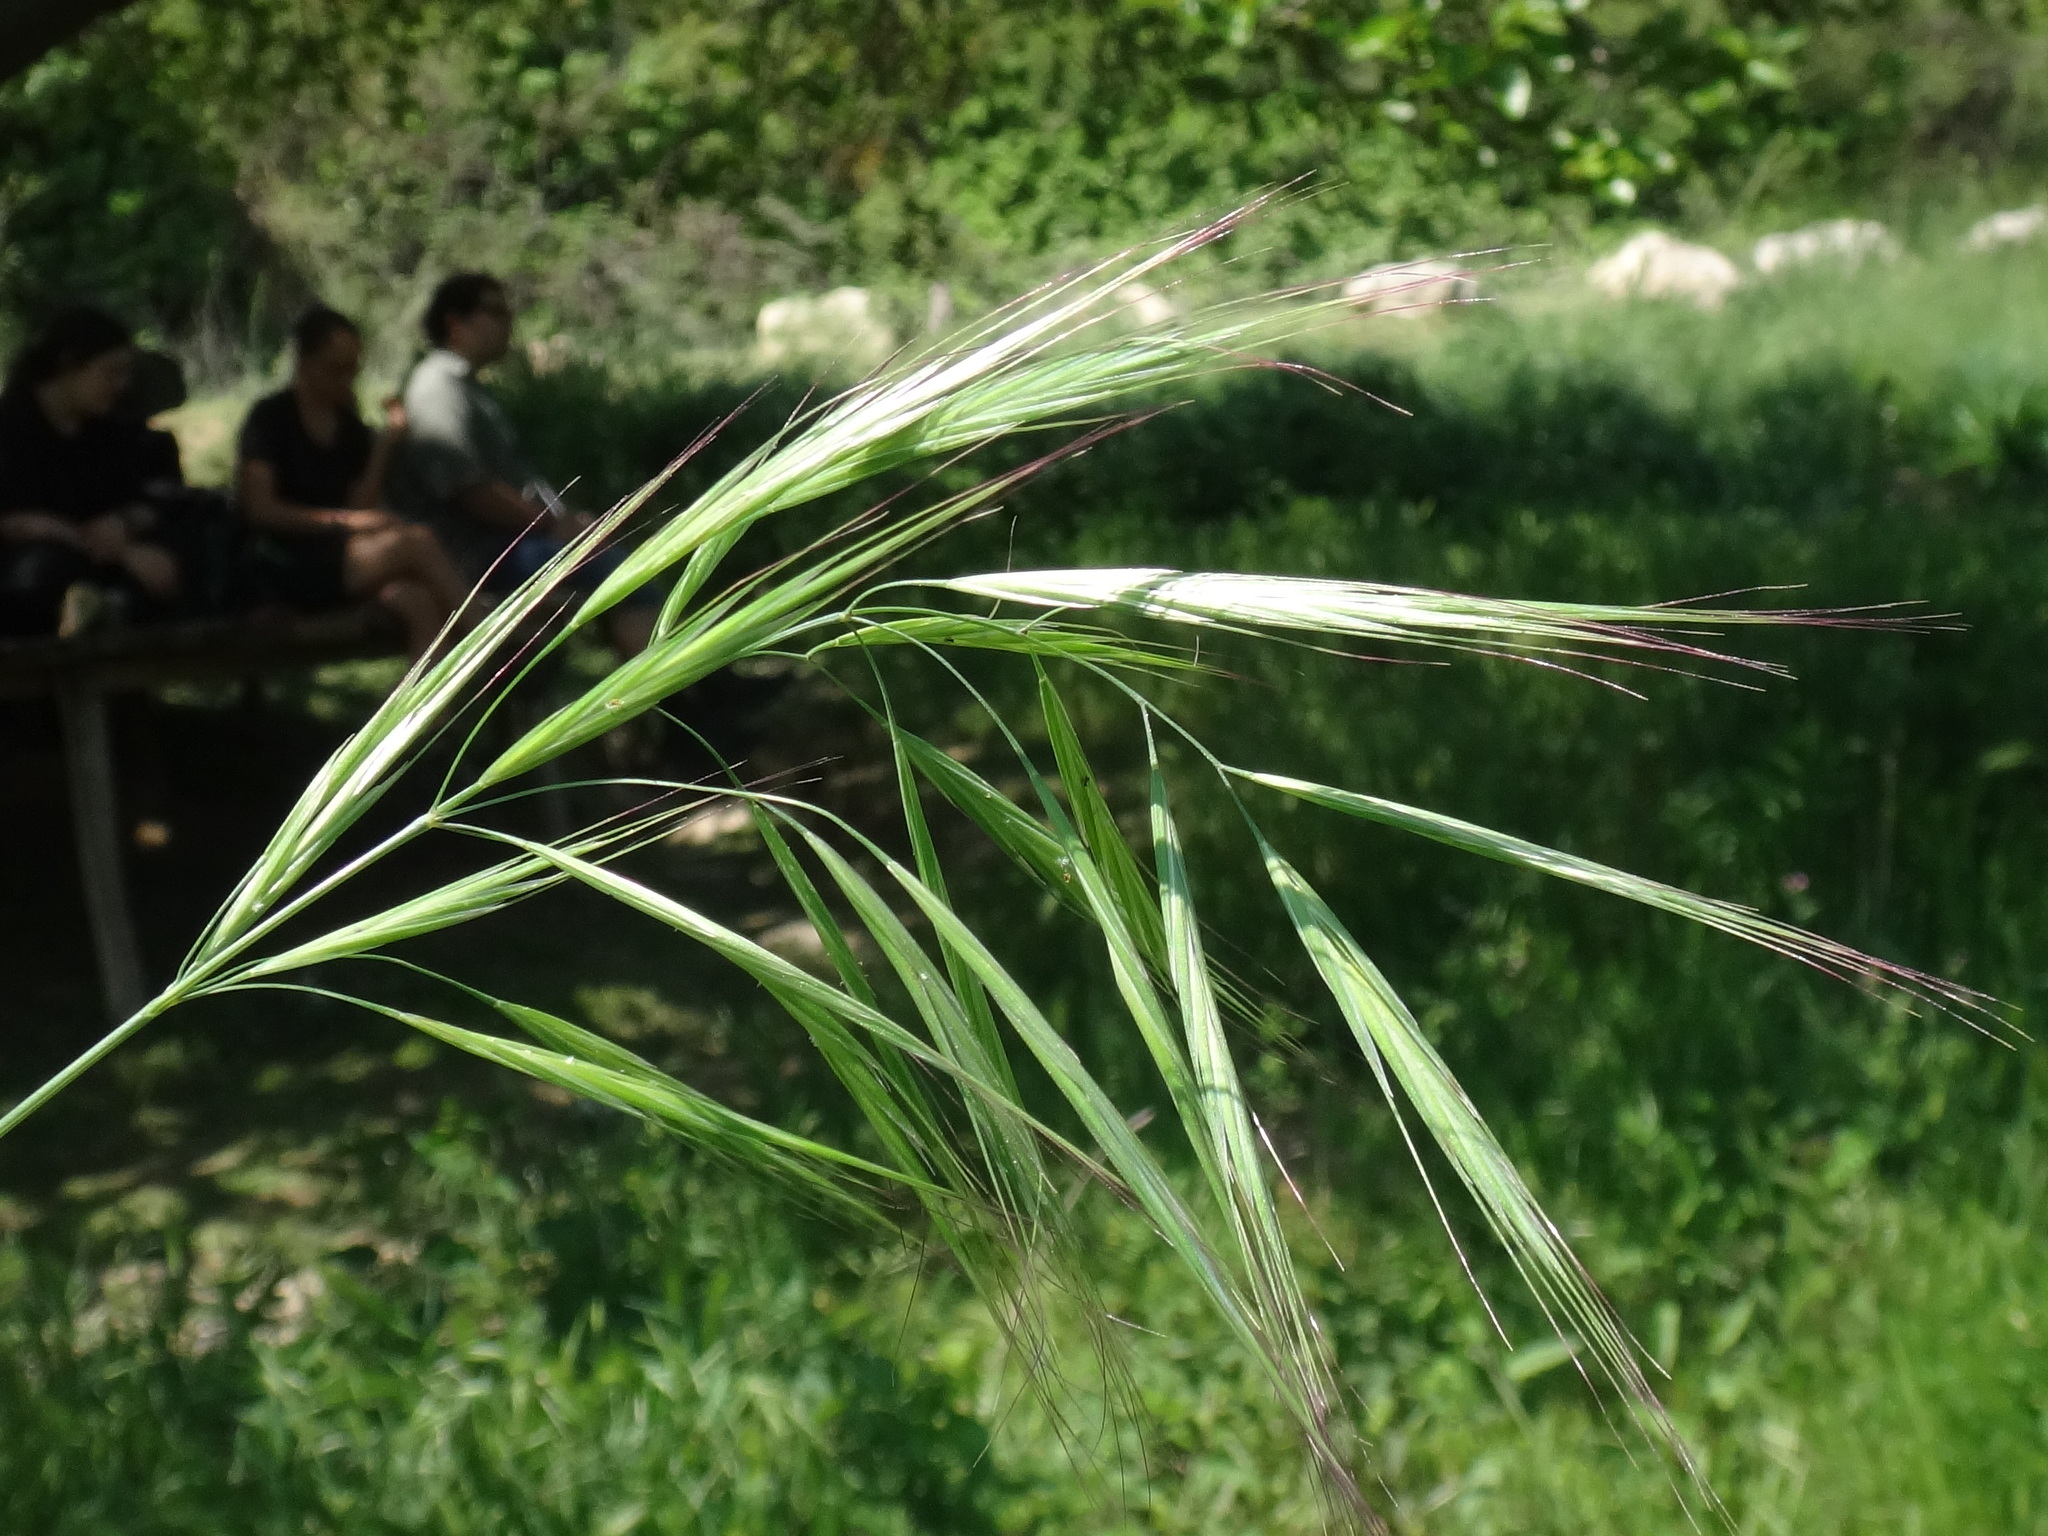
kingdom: Plantae
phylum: Tracheophyta
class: Liliopsida
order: Poales
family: Poaceae
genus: Bromus
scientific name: Bromus madritensis
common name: Compact brome
